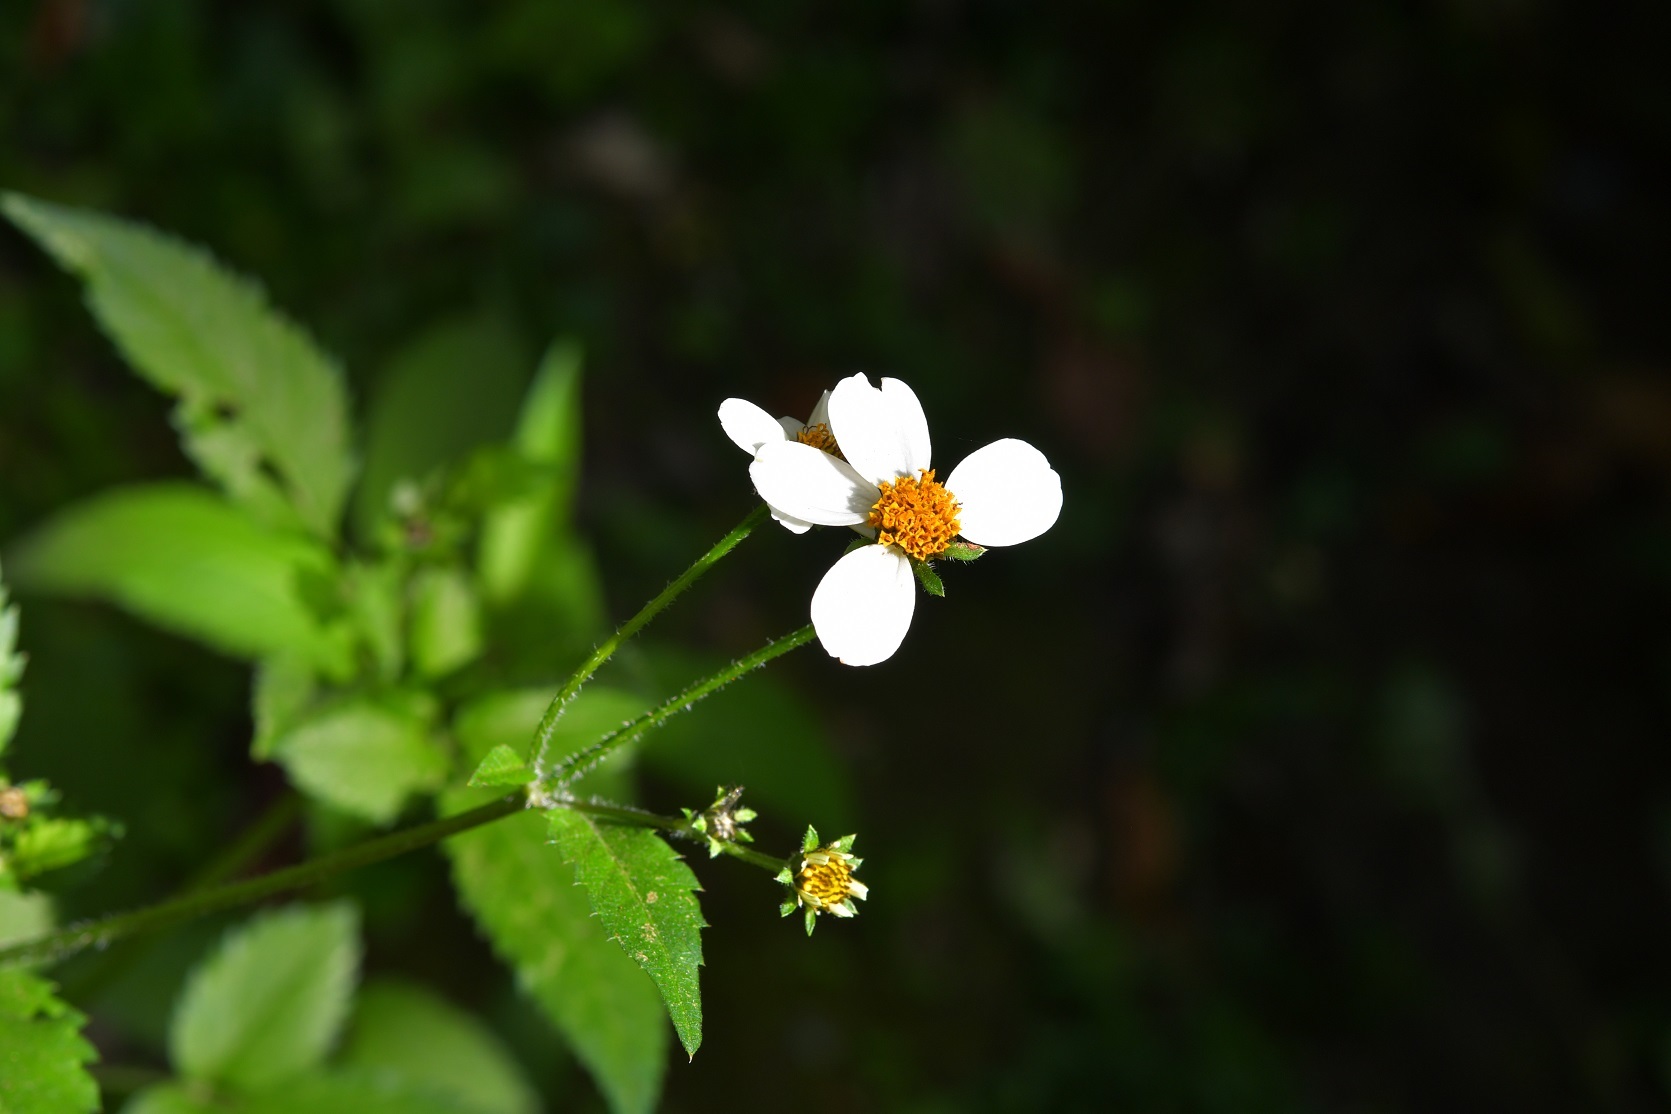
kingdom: Plantae
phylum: Tracheophyta
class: Magnoliopsida
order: Asterales
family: Asteraceae
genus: Bidens
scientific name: Bidens odorata
